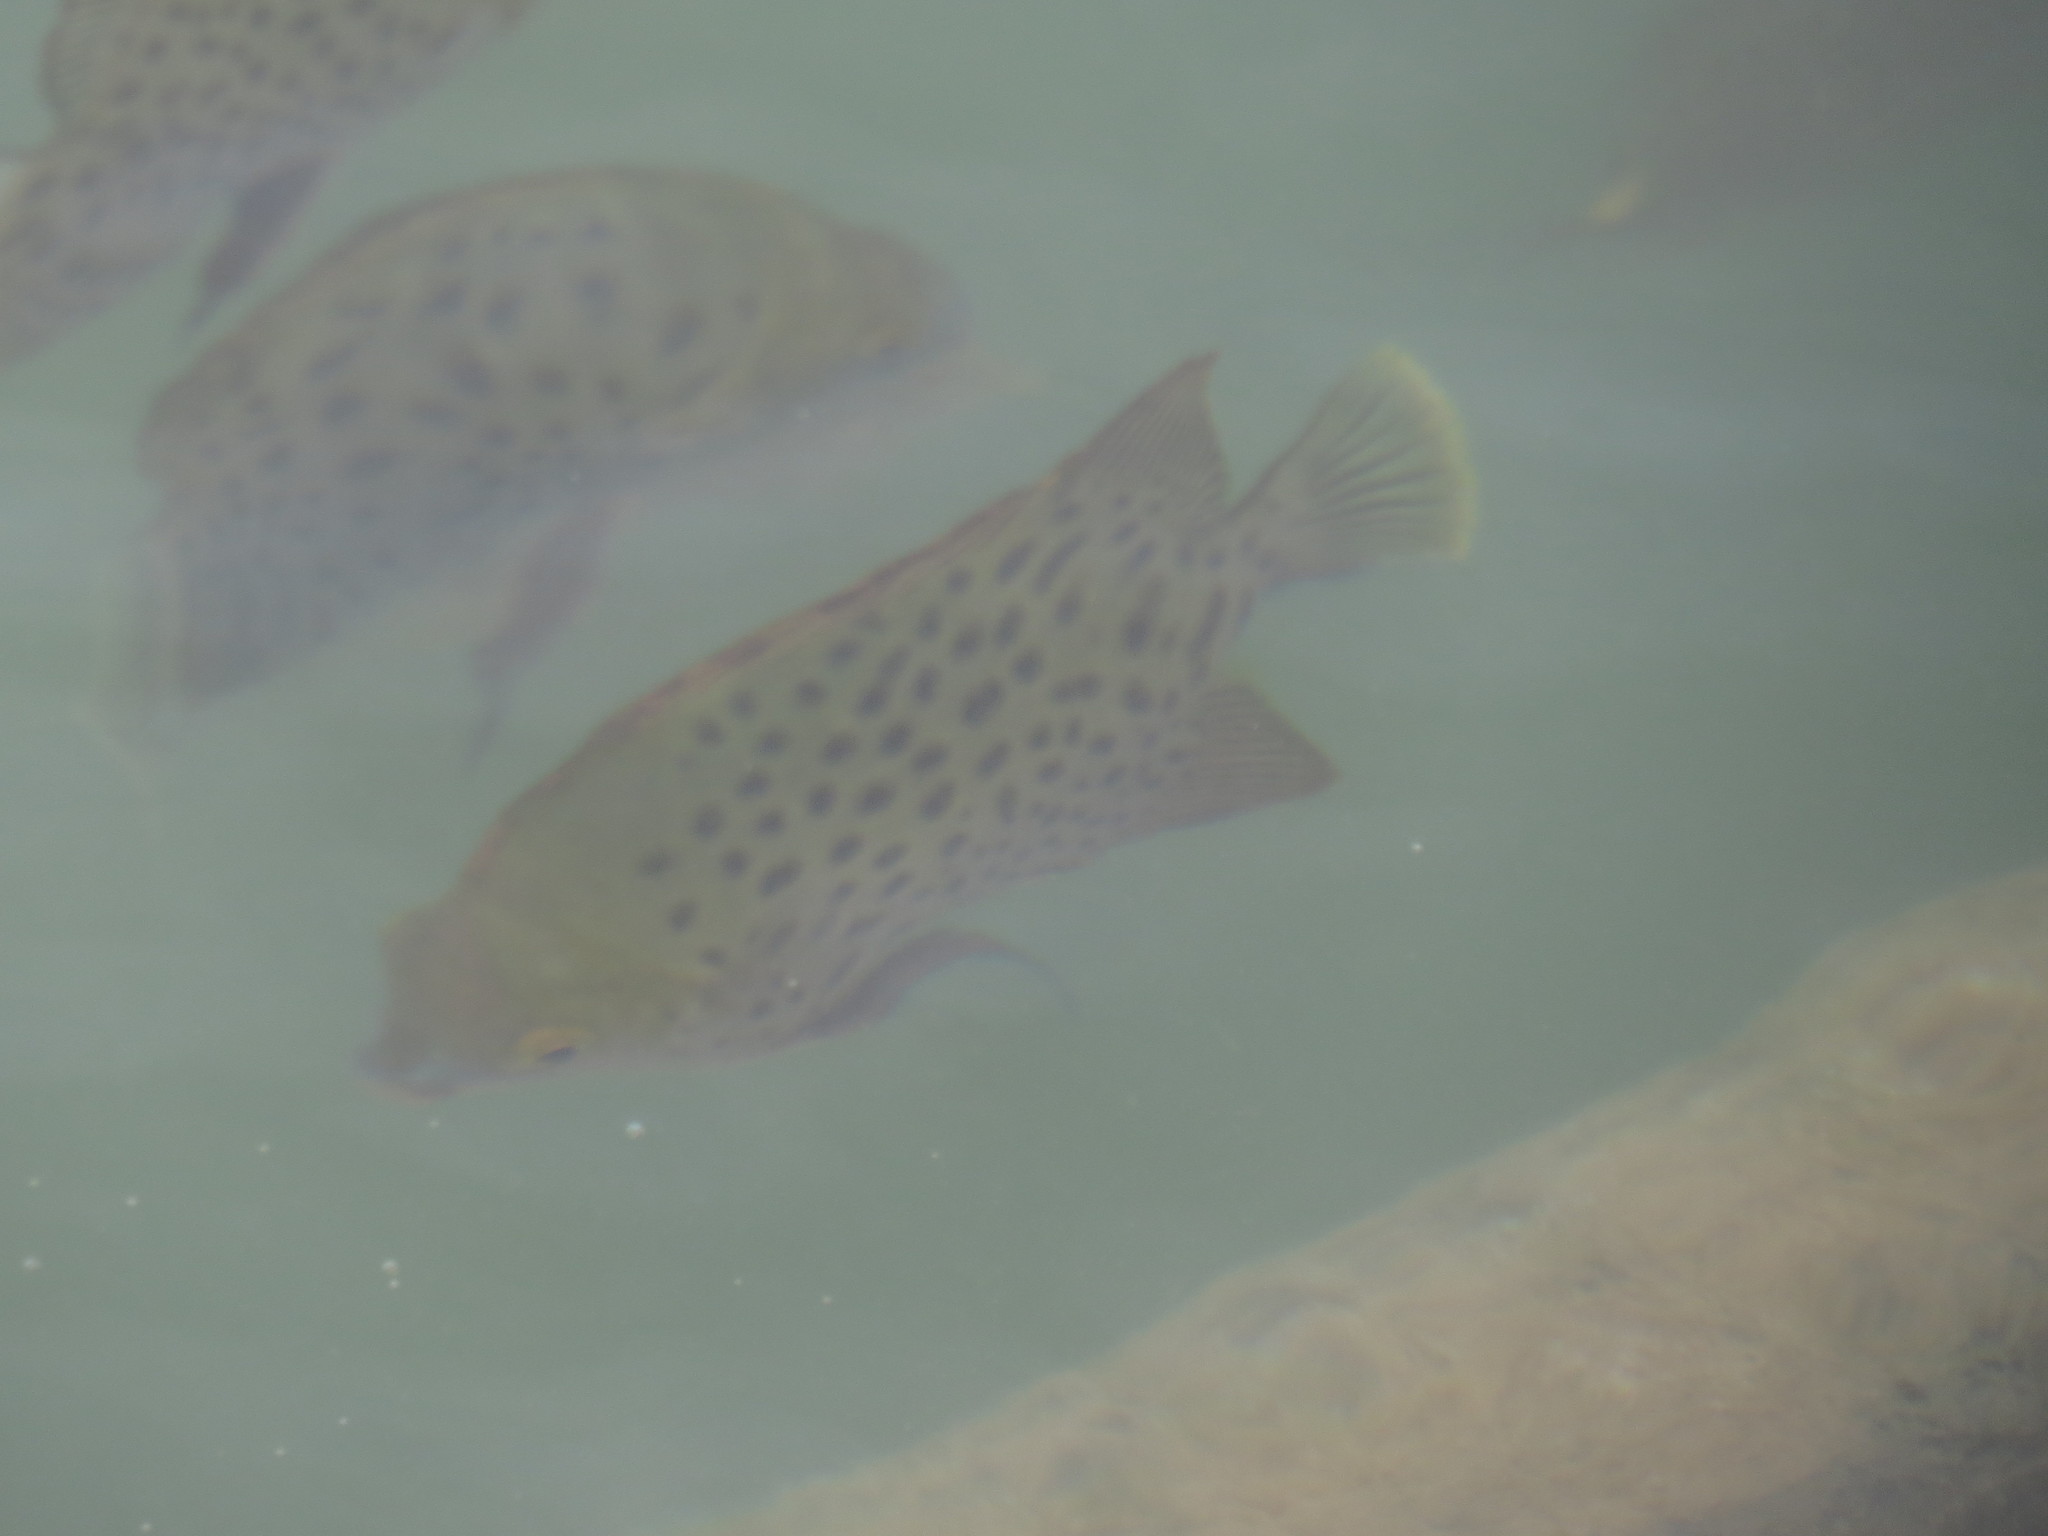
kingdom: Animalia
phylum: Chordata
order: Perciformes
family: Scatophagidae
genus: Scatophagus
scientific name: Scatophagus argus
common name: Spotted scat
